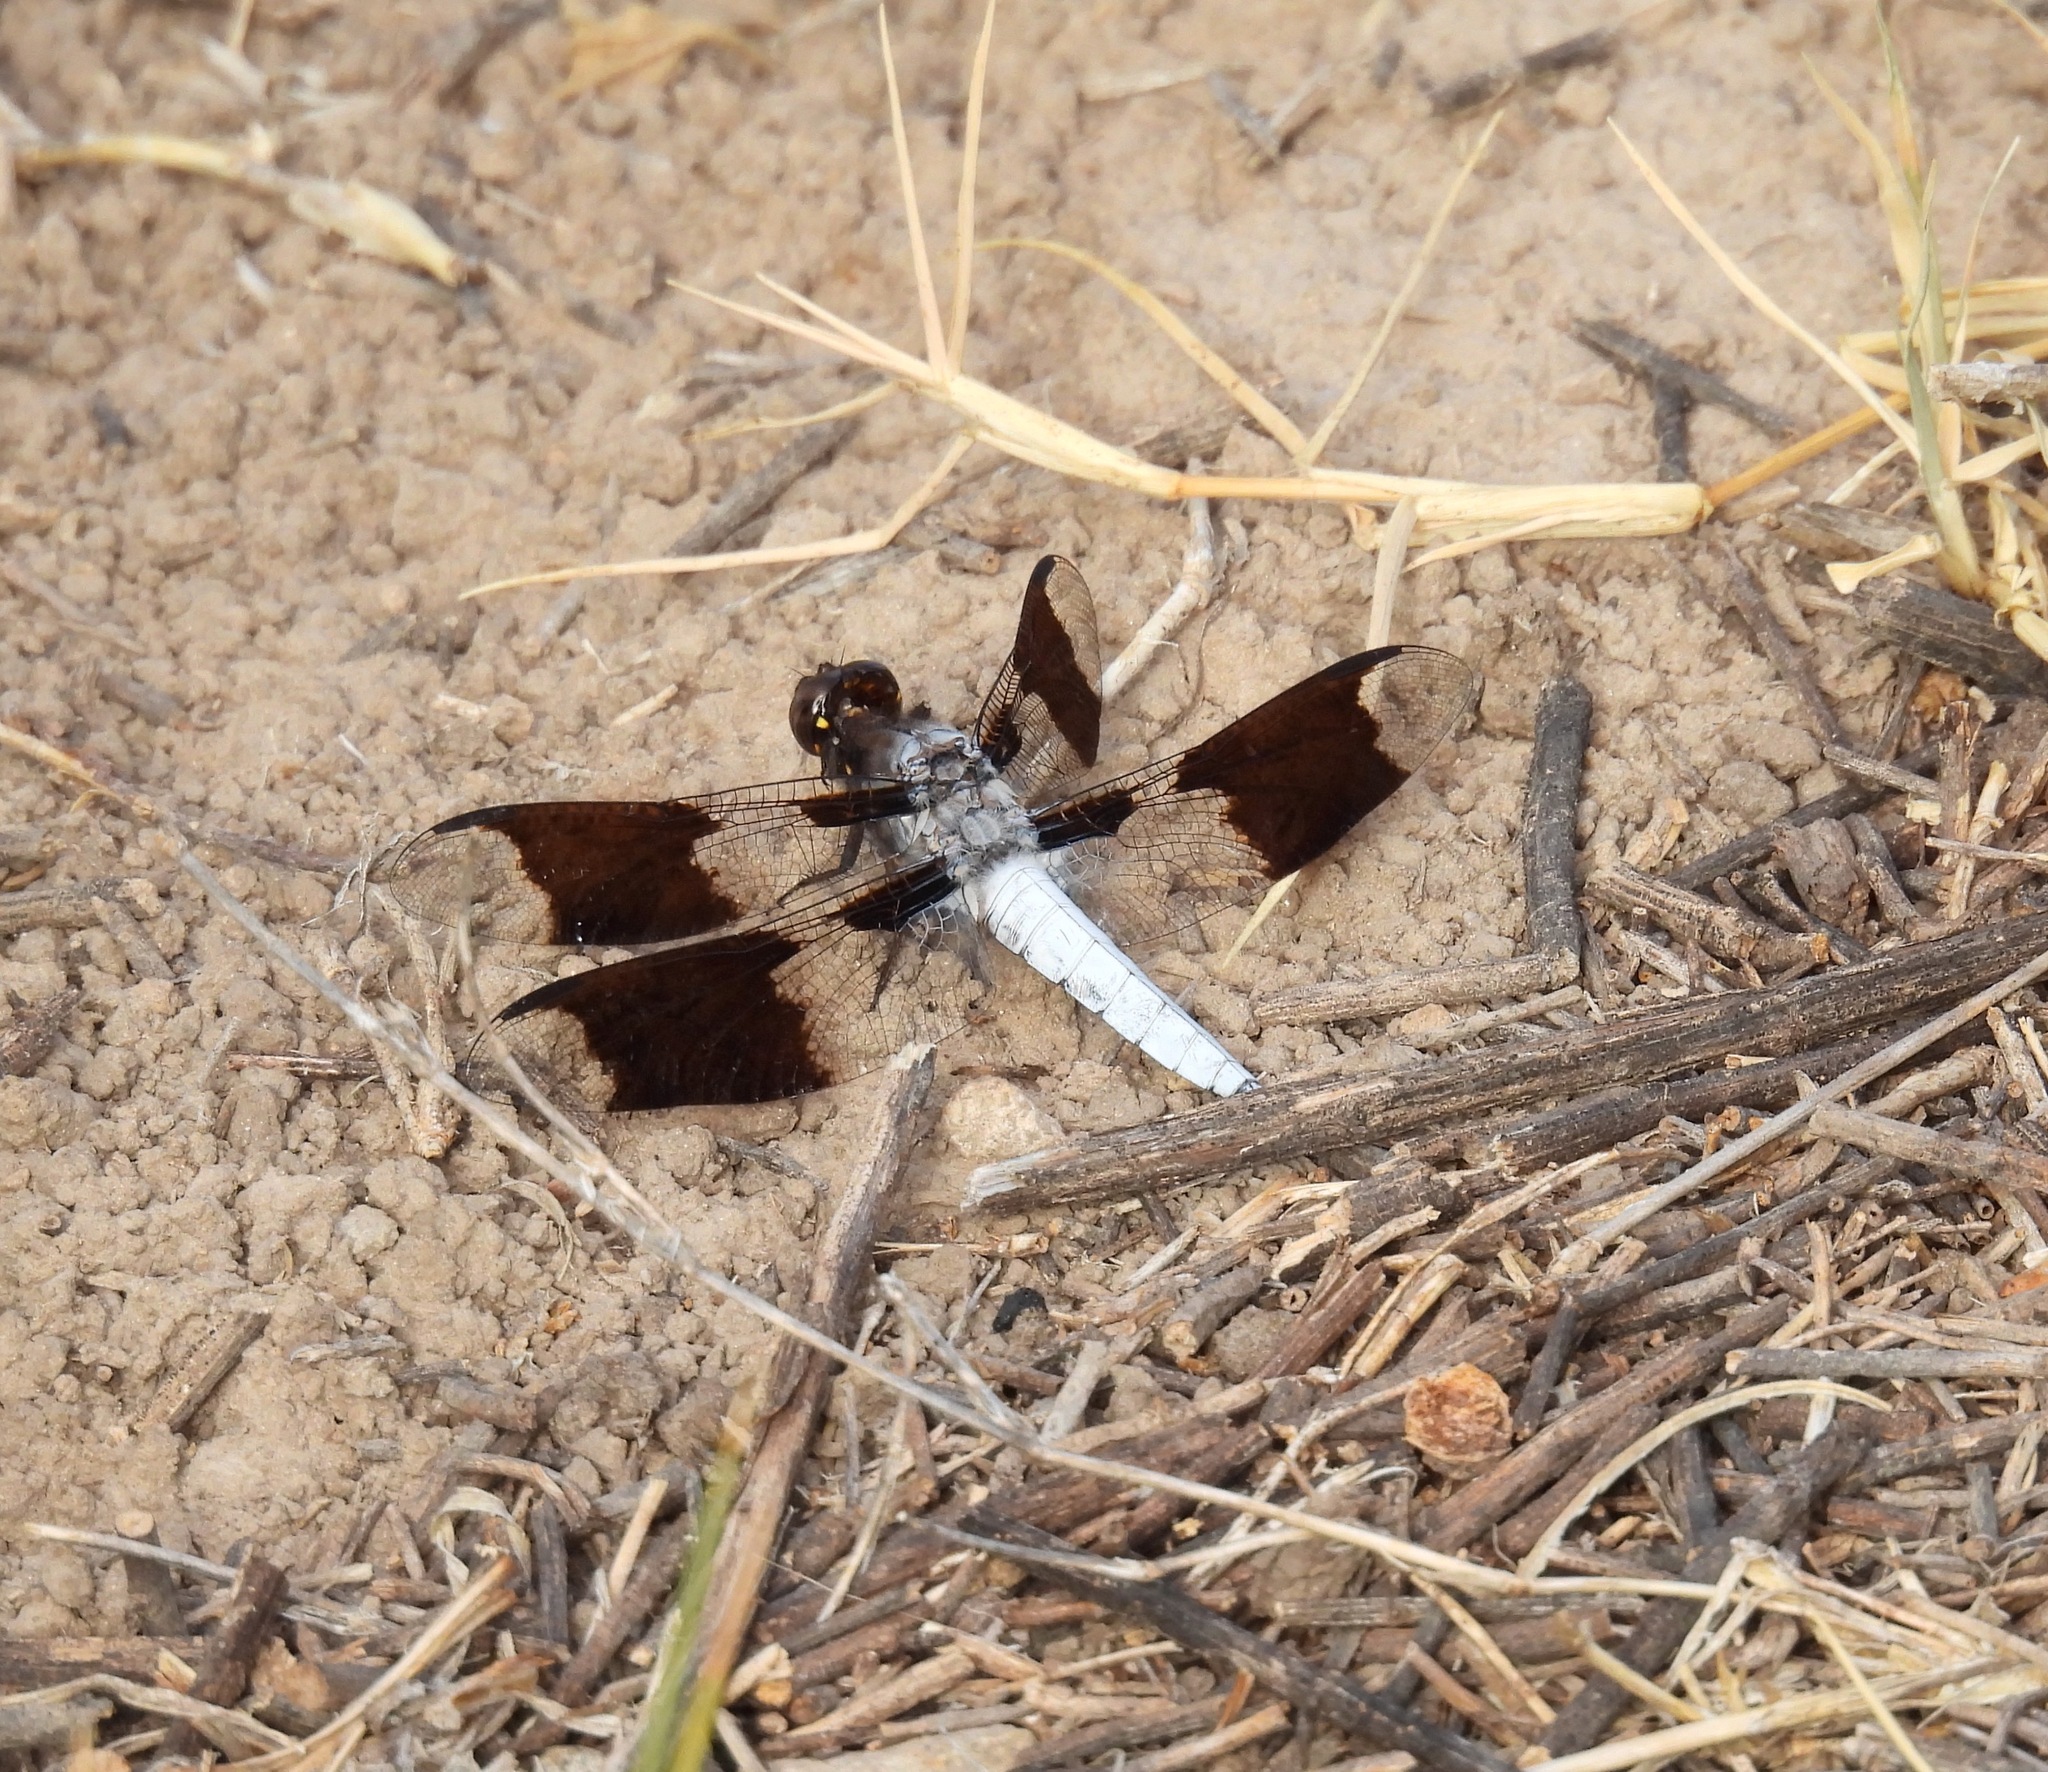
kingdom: Animalia
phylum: Arthropoda
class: Insecta
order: Odonata
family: Libellulidae
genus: Plathemis
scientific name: Plathemis lydia
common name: Common whitetail
